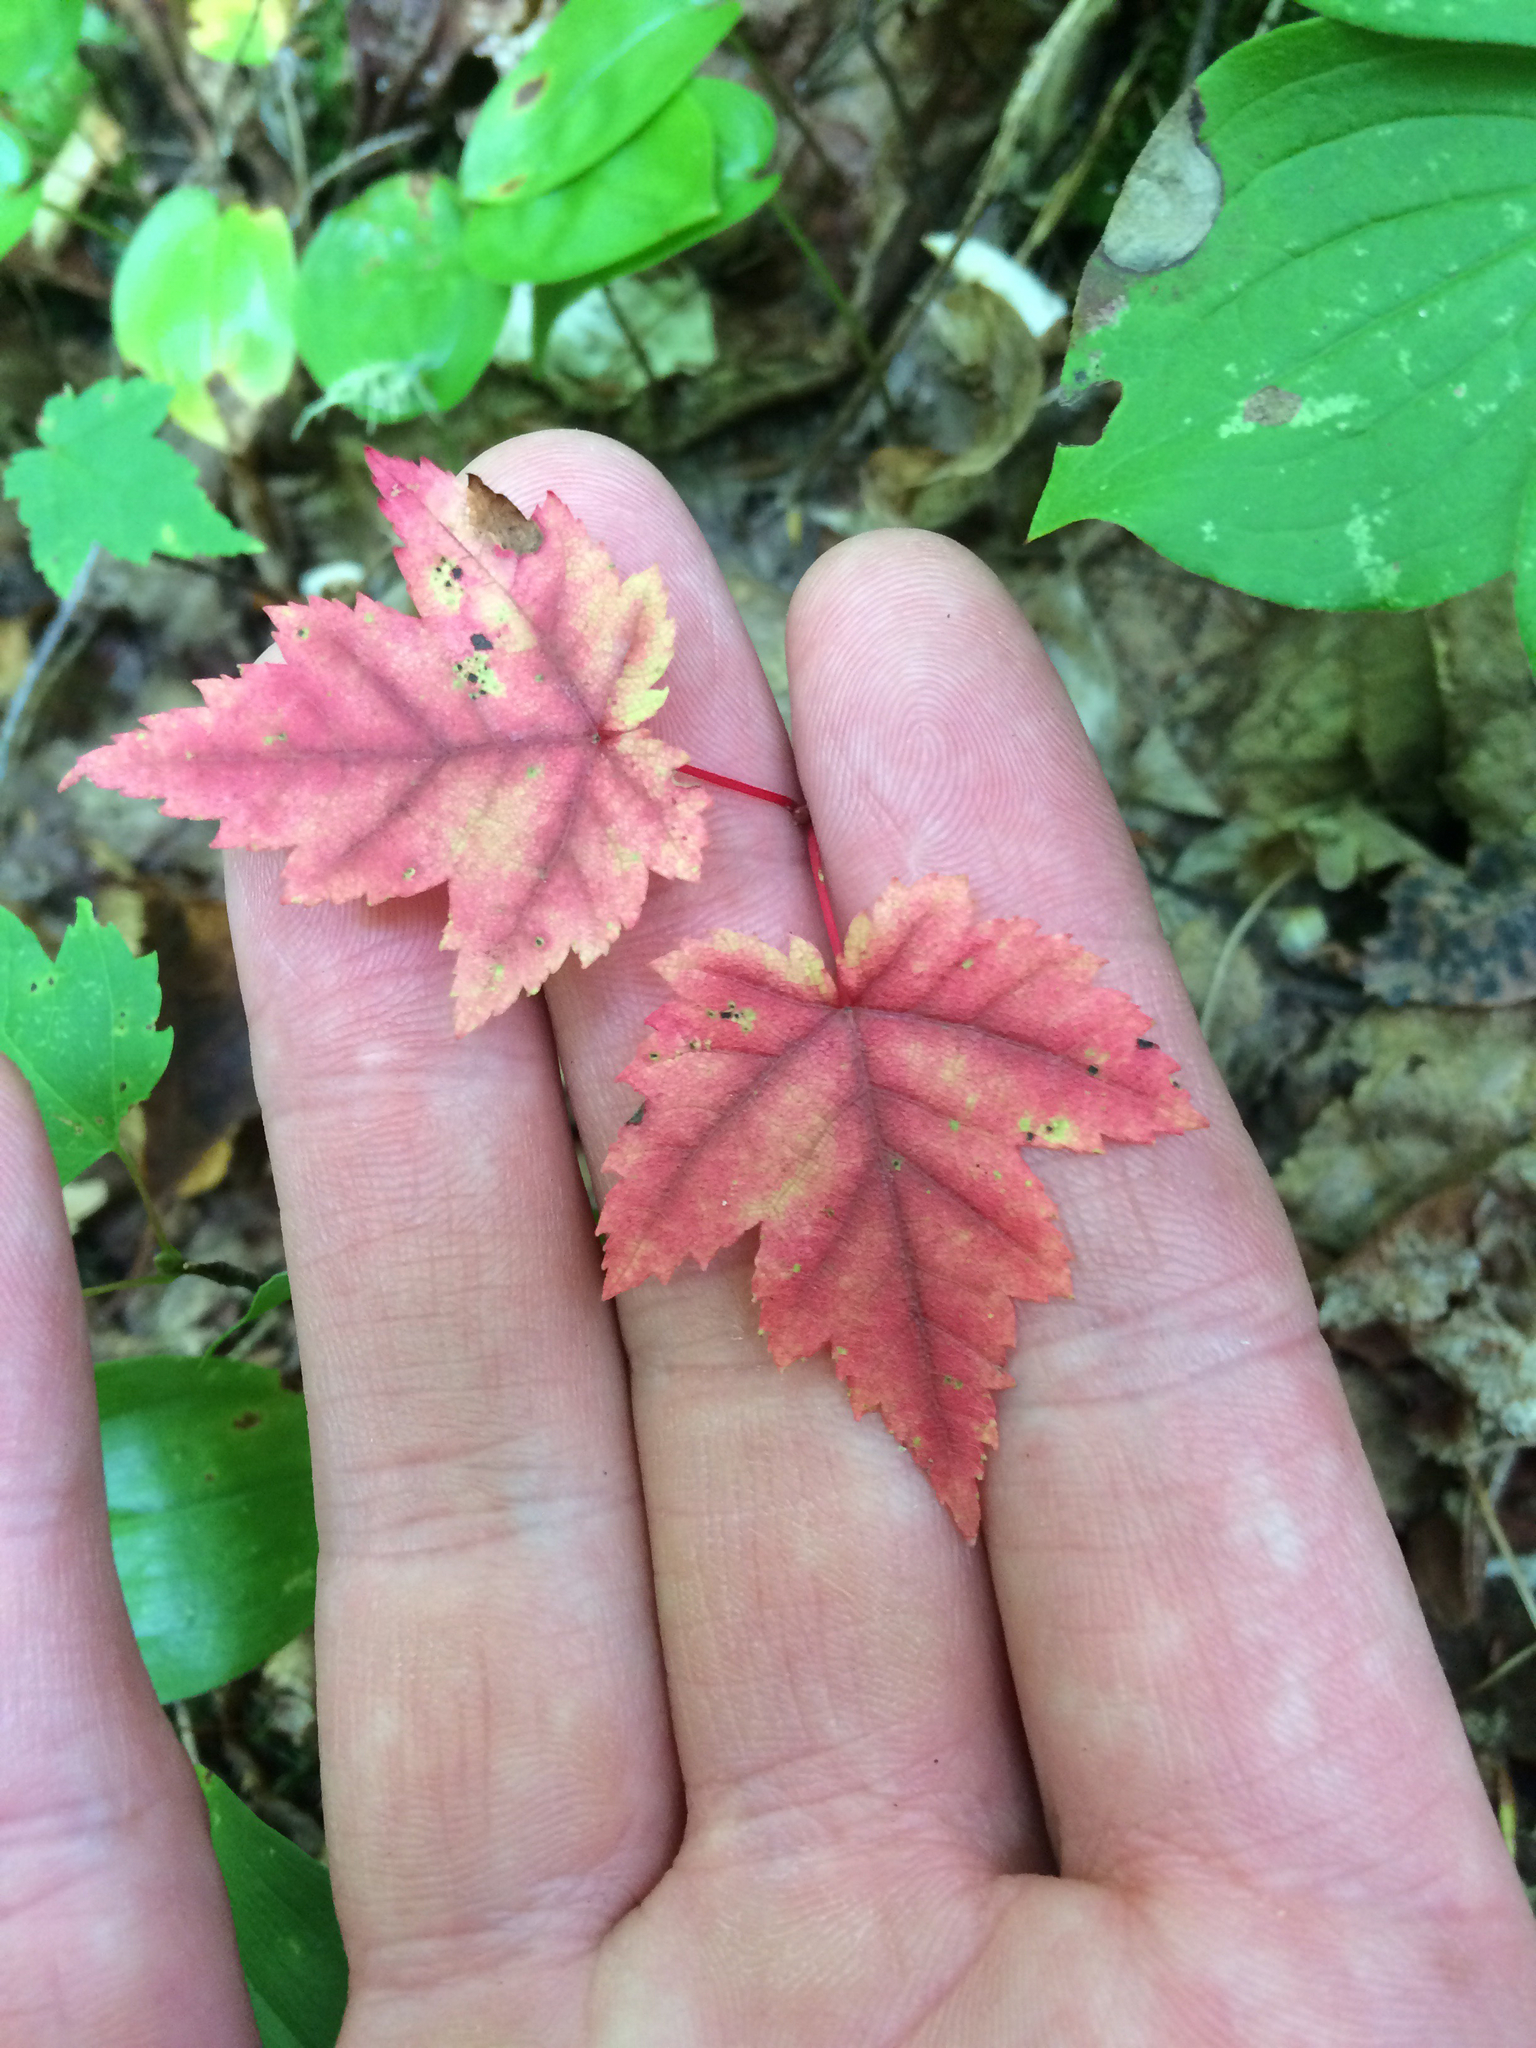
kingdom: Plantae
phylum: Tracheophyta
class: Magnoliopsida
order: Sapindales
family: Sapindaceae
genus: Acer
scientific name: Acer rubrum
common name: Red maple
